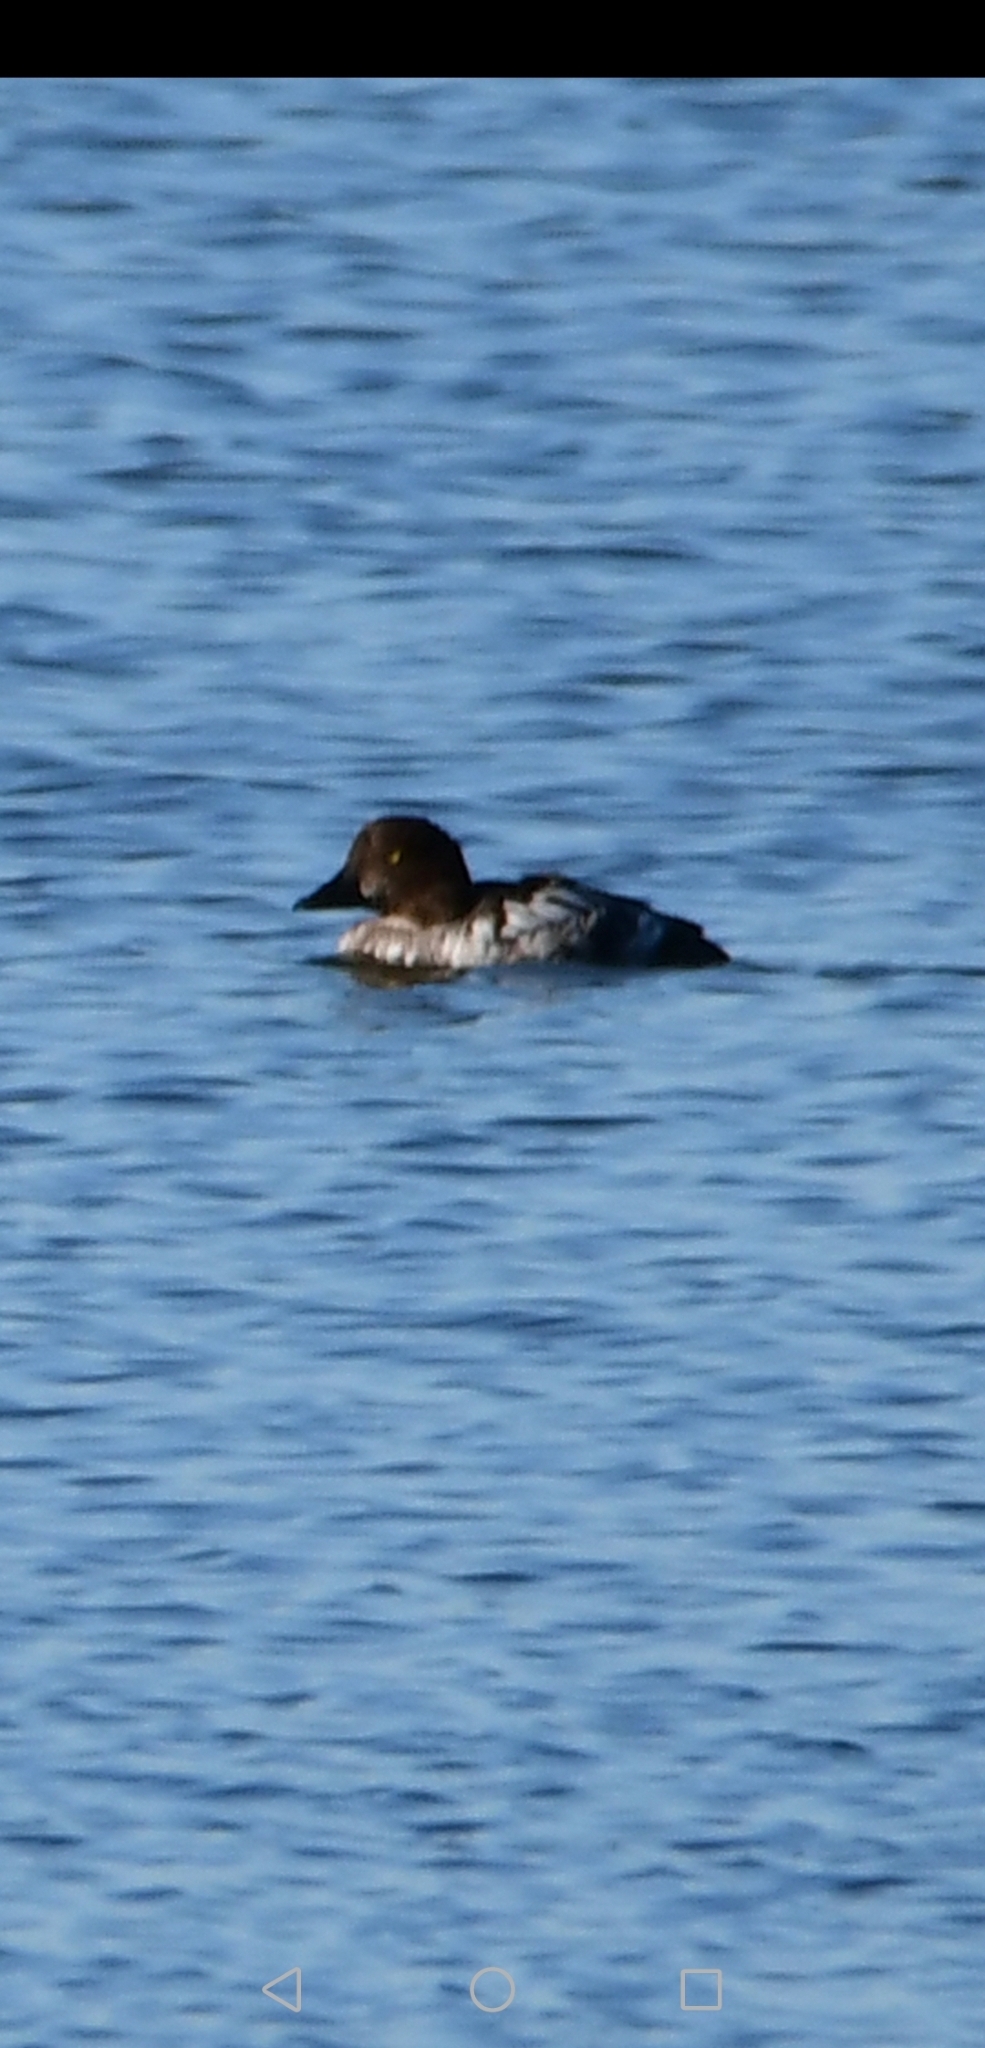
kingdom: Animalia
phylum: Chordata
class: Aves
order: Anseriformes
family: Anatidae
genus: Bucephala
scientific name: Bucephala clangula
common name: Common goldeneye
